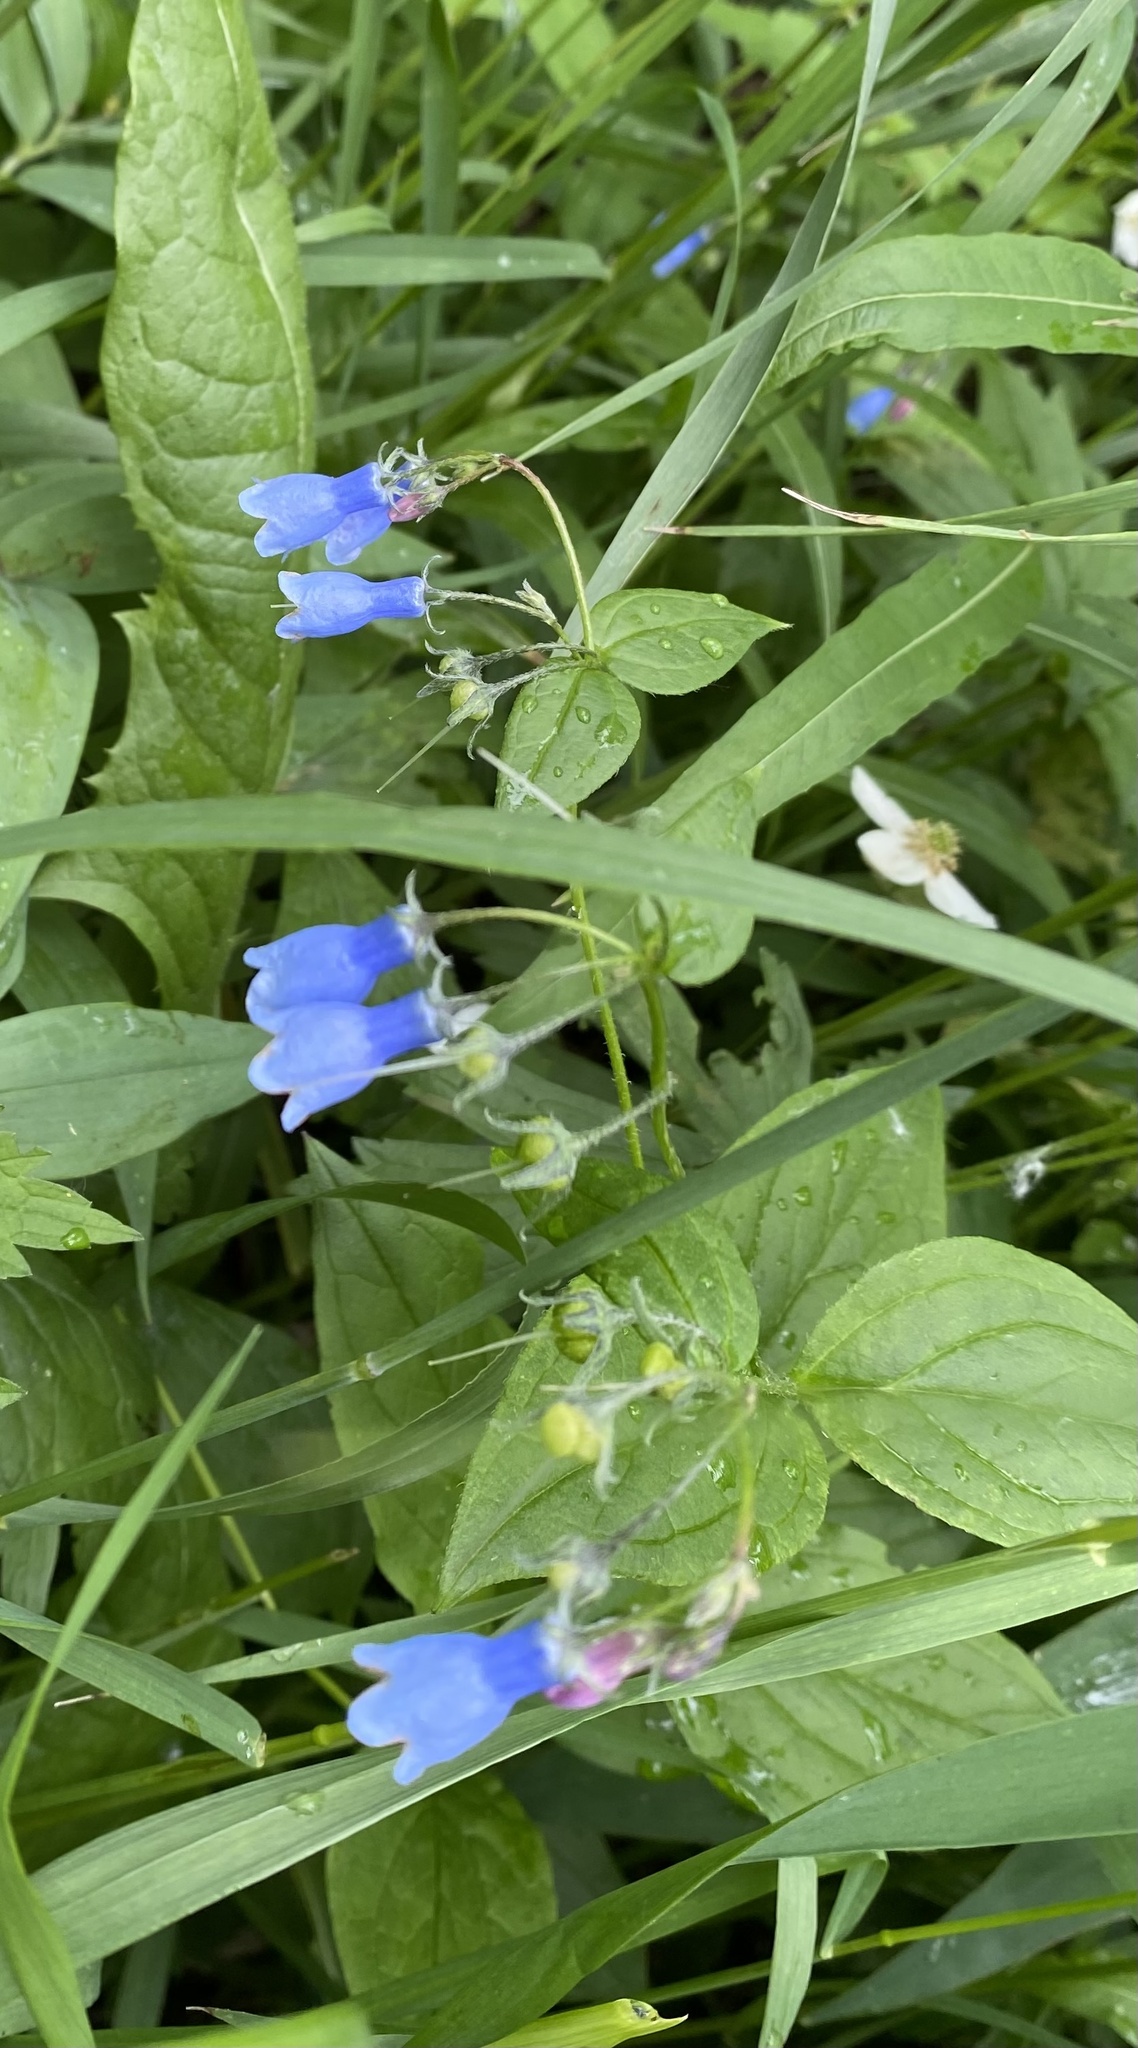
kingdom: Plantae
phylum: Tracheophyta
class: Magnoliopsida
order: Boraginales
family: Boraginaceae
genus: Mertensia
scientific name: Mertensia paniculata
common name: Panicled bluebells
